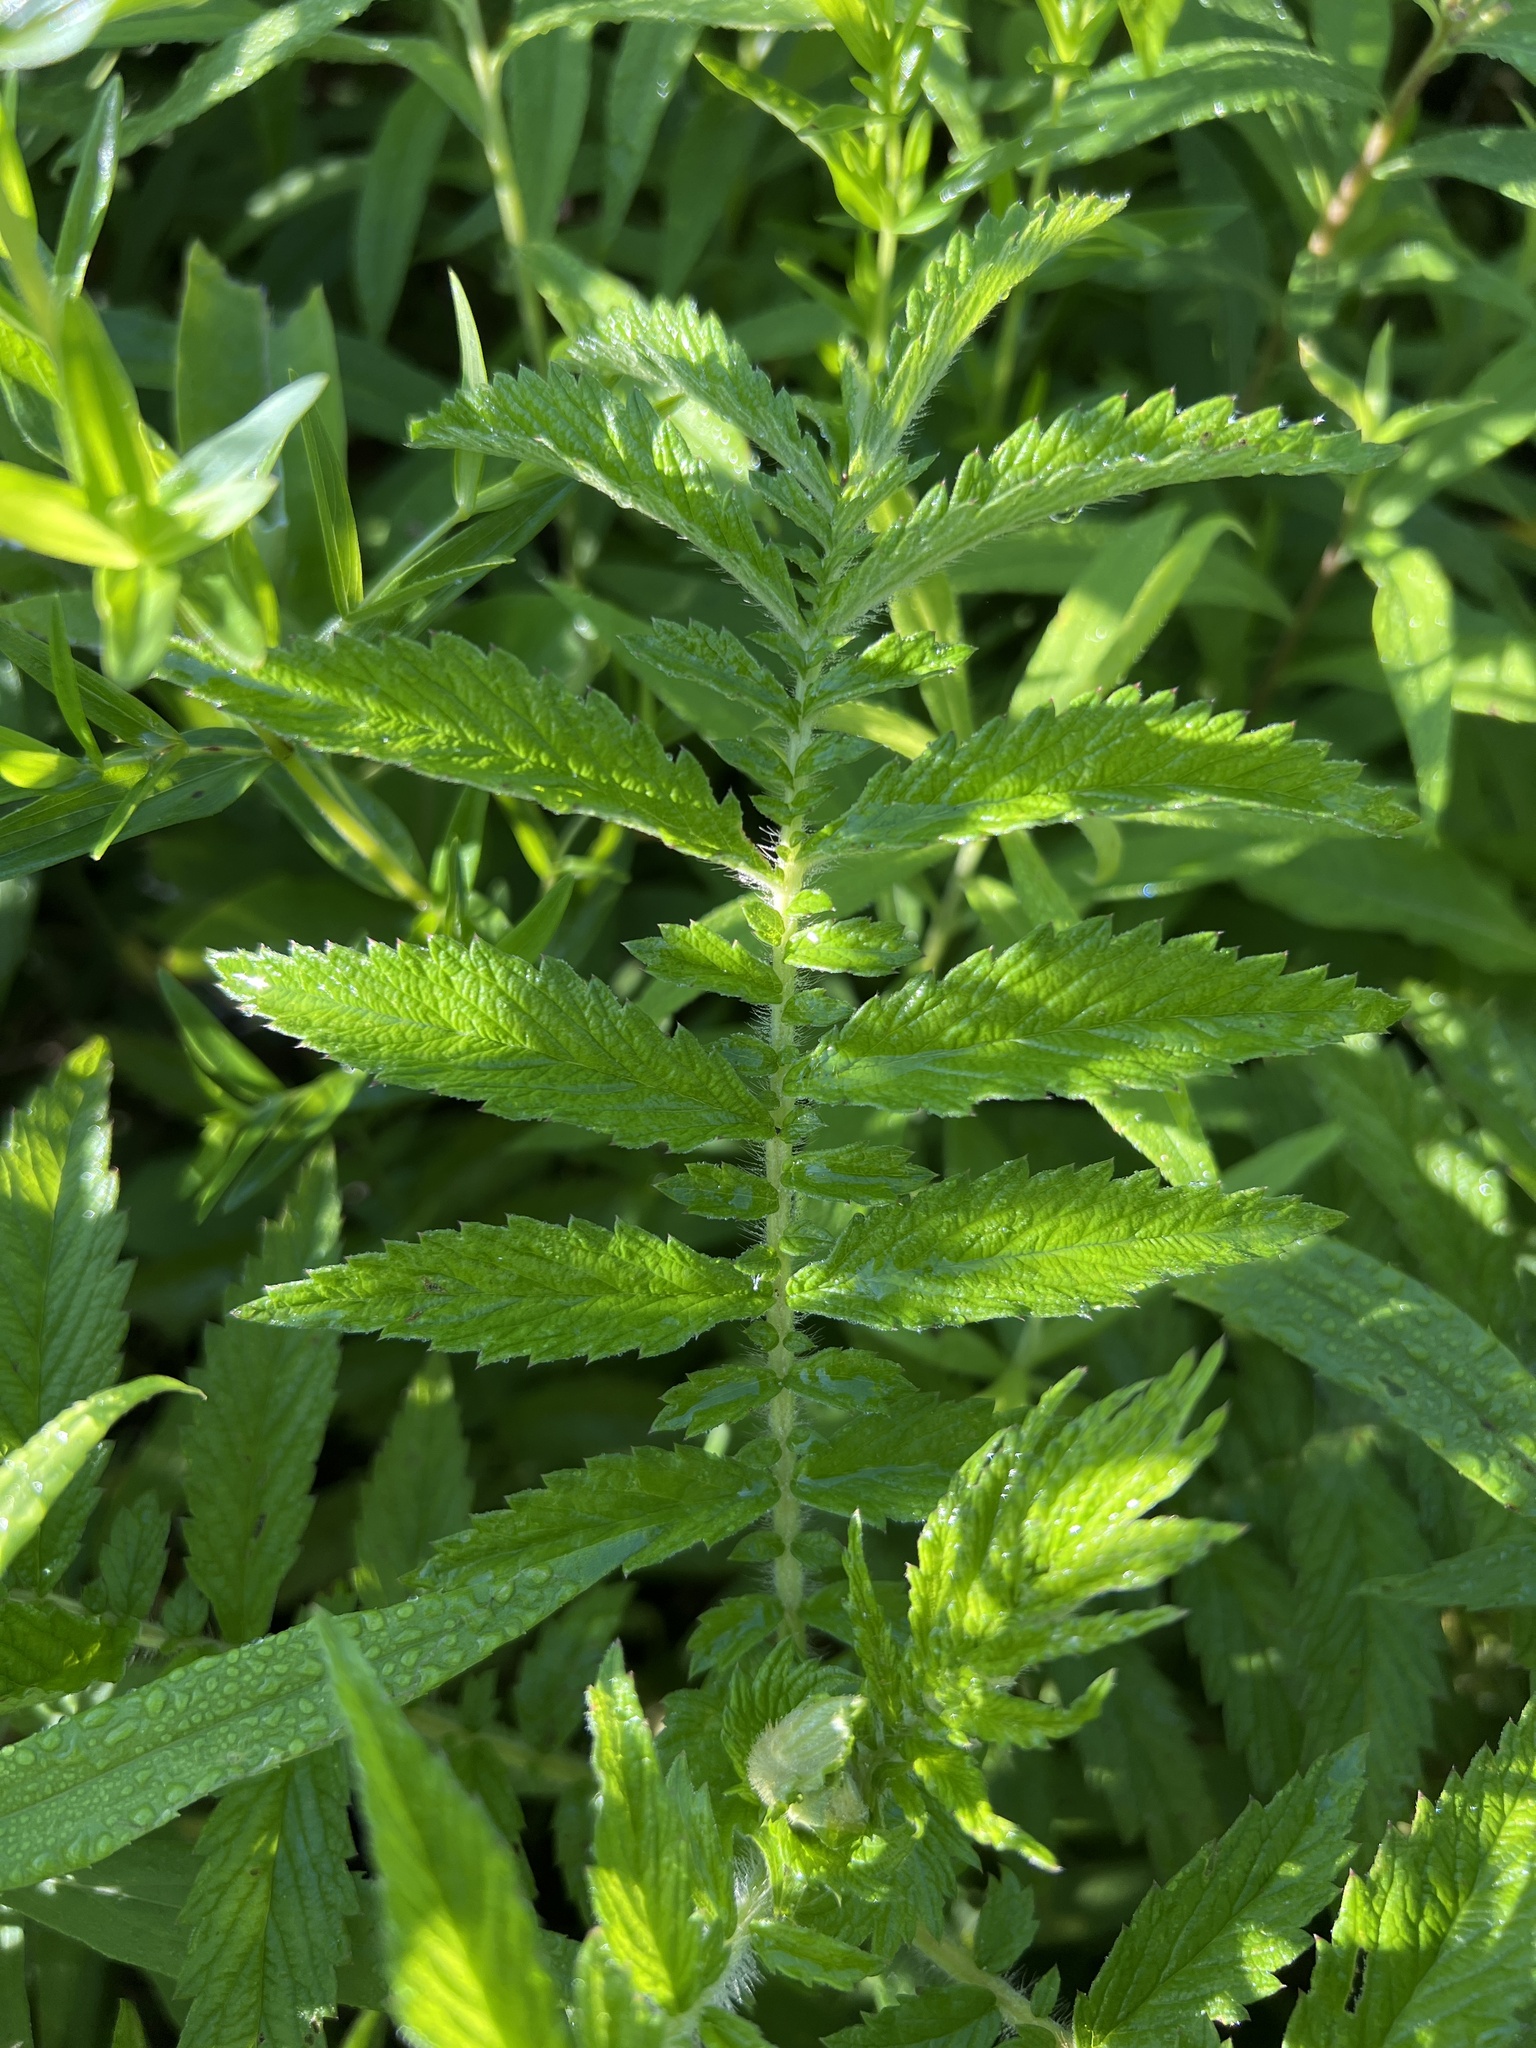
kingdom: Plantae
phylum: Tracheophyta
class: Magnoliopsida
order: Rosales
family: Rosaceae
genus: Agrimonia
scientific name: Agrimonia parviflora
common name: Harvest-lice
